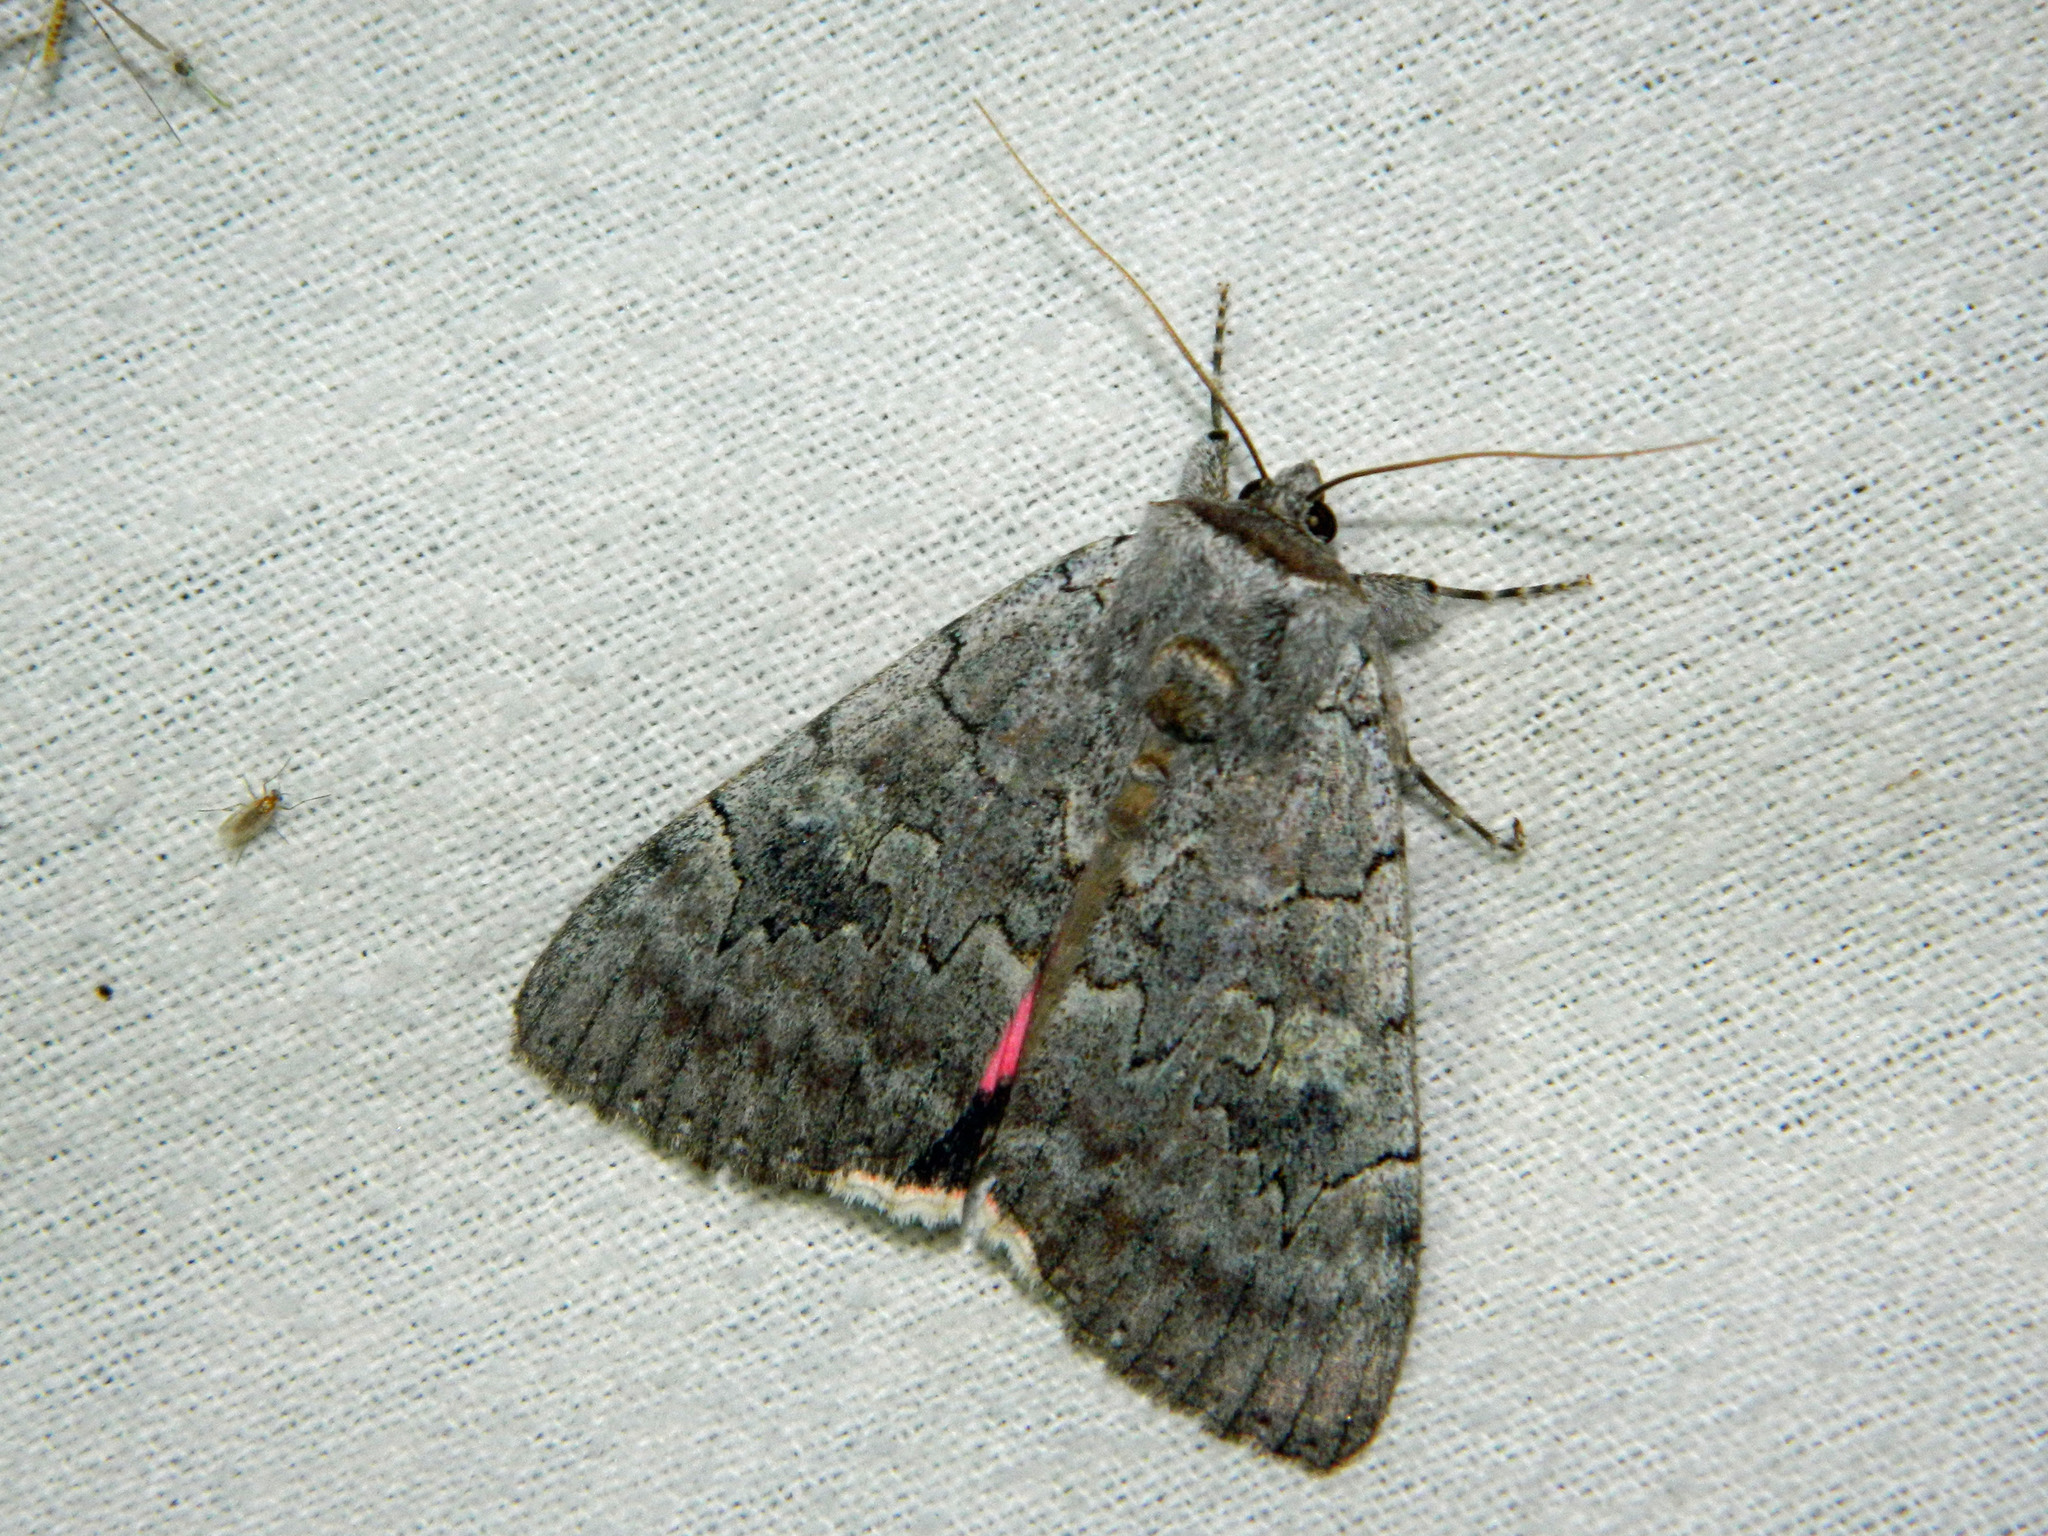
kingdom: Animalia
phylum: Arthropoda
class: Insecta
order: Lepidoptera
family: Erebidae
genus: Catocala
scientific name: Catocala concumbens
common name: Pink underwing
